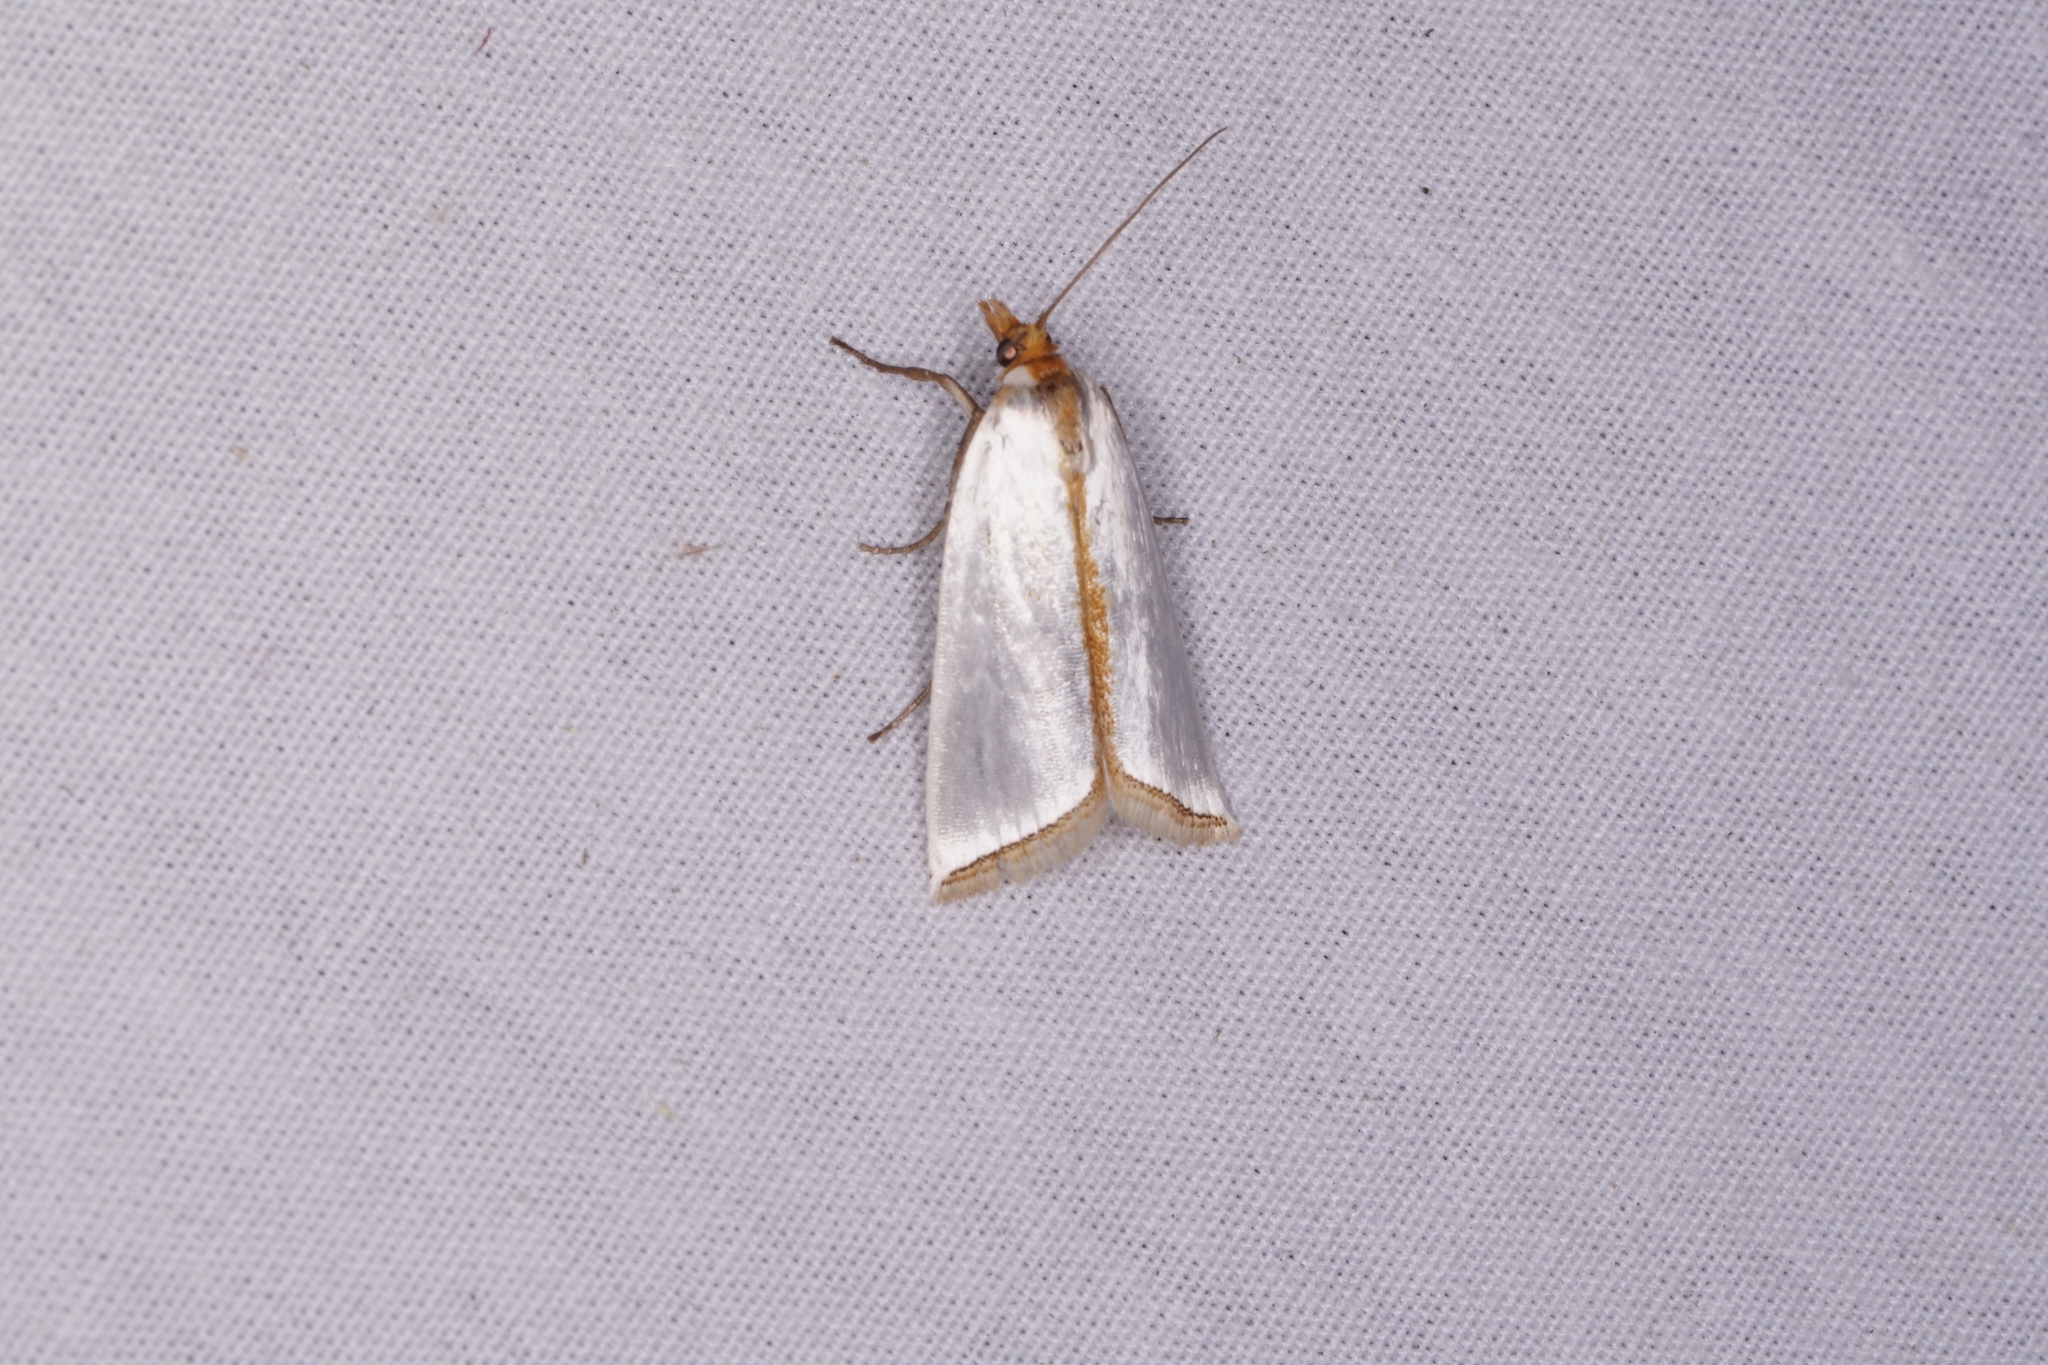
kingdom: Animalia
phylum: Arthropoda
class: Insecta
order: Lepidoptera
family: Crambidae
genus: Argyria
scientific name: Argyria
